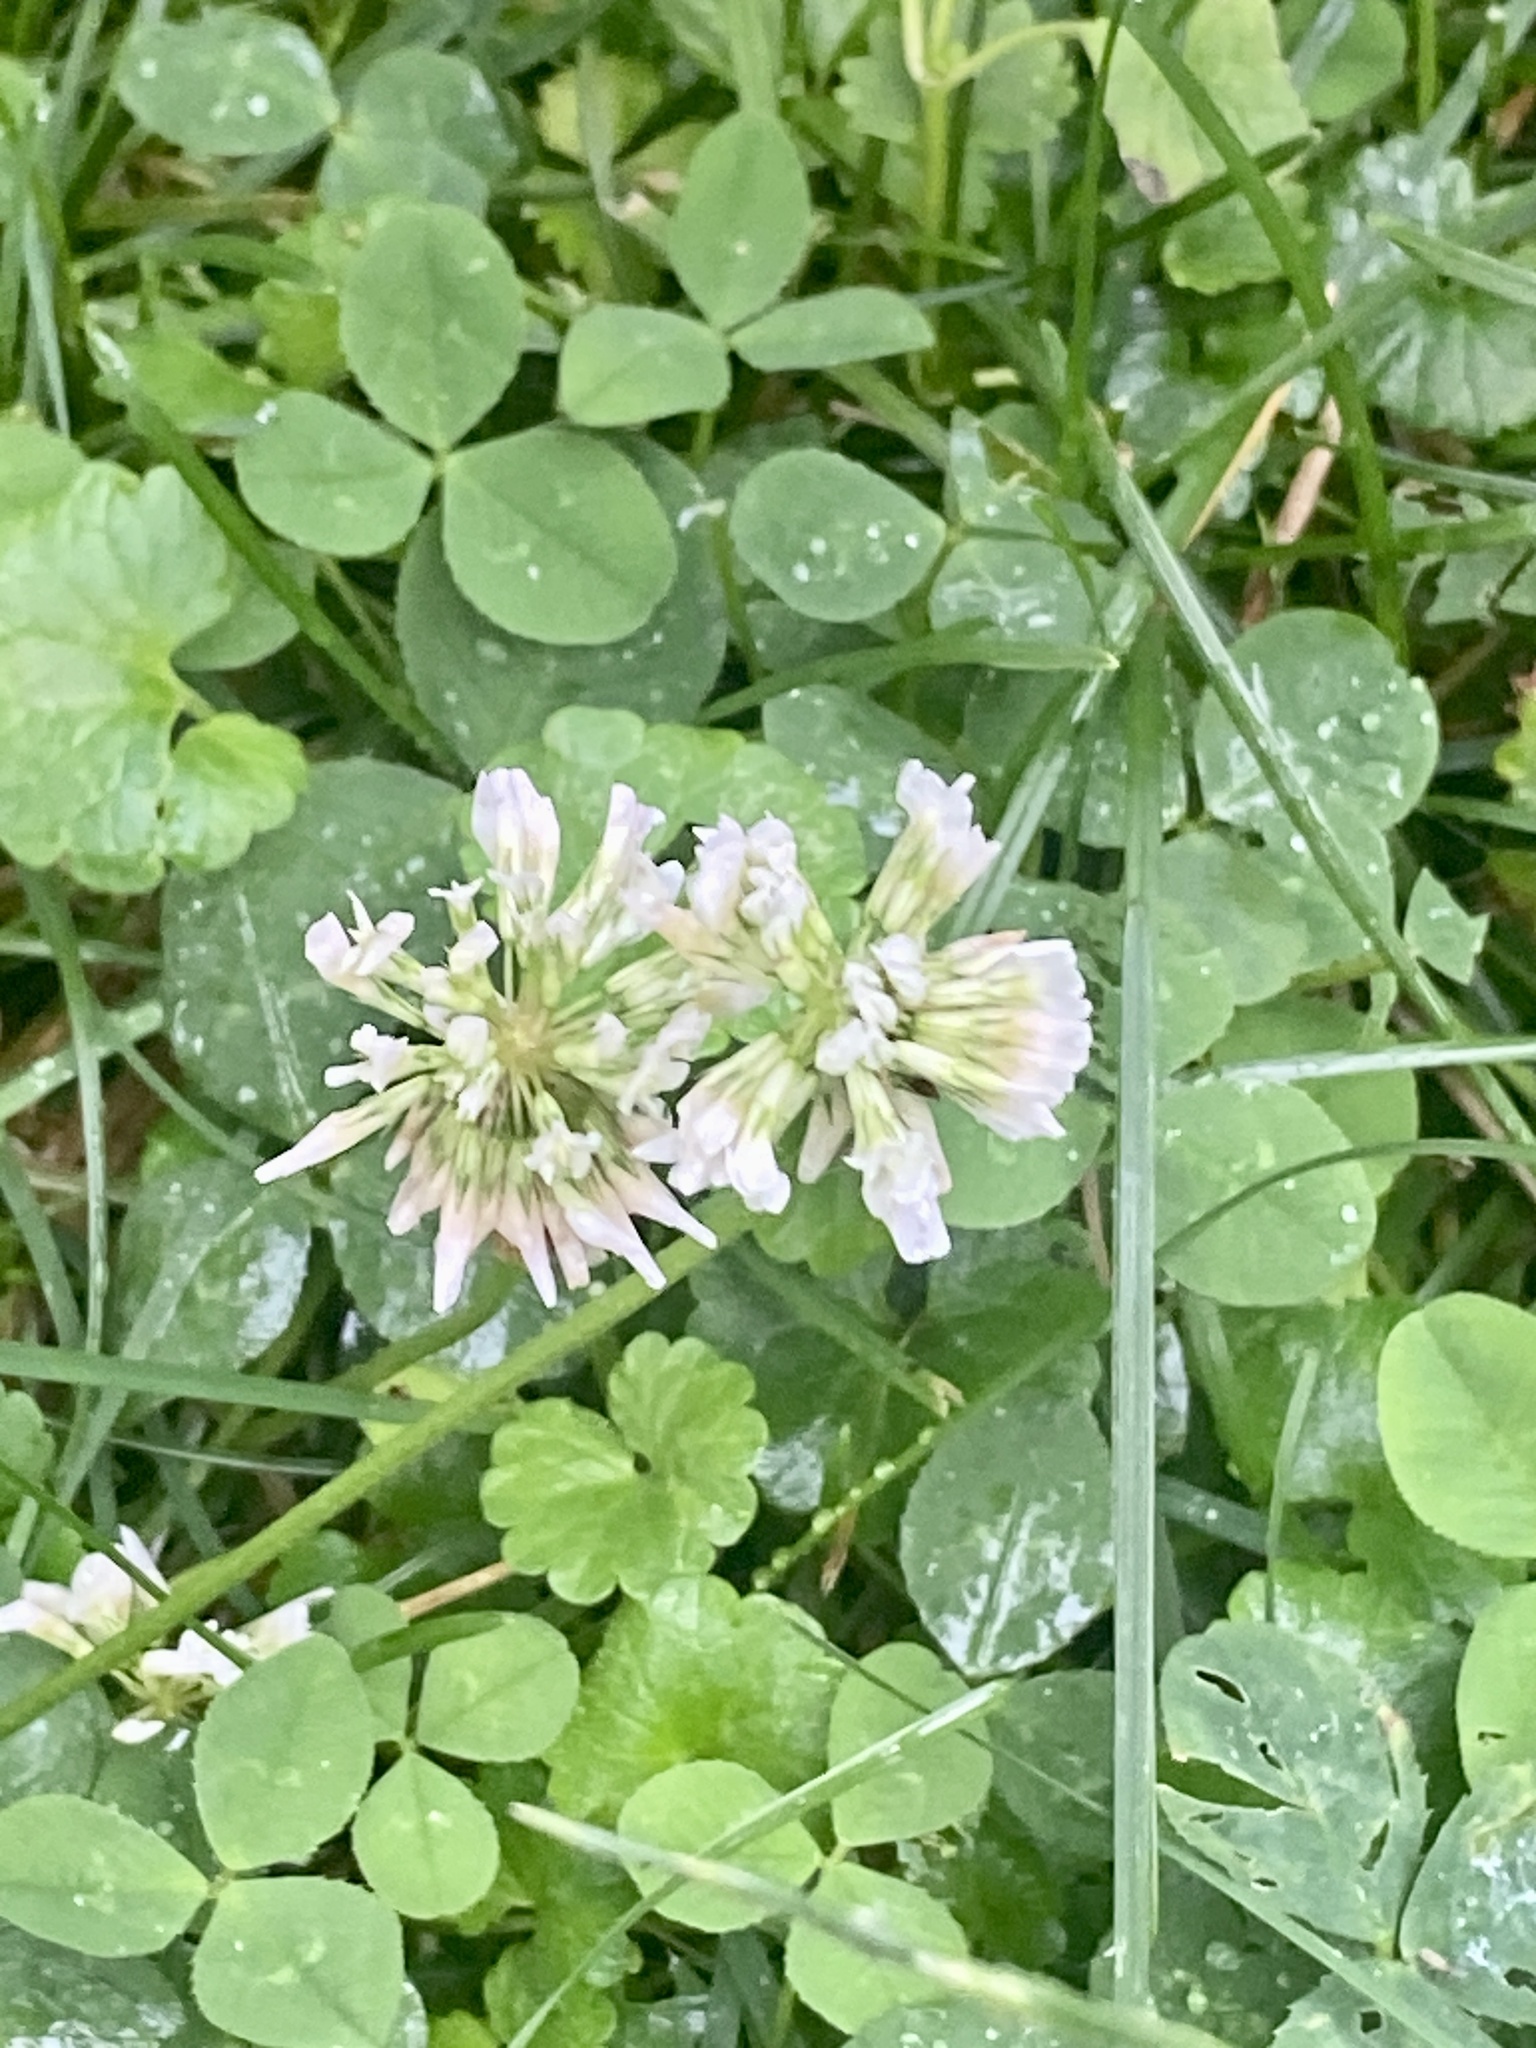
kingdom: Plantae
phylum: Tracheophyta
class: Magnoliopsida
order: Fabales
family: Fabaceae
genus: Trifolium
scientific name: Trifolium repens
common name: White clover
